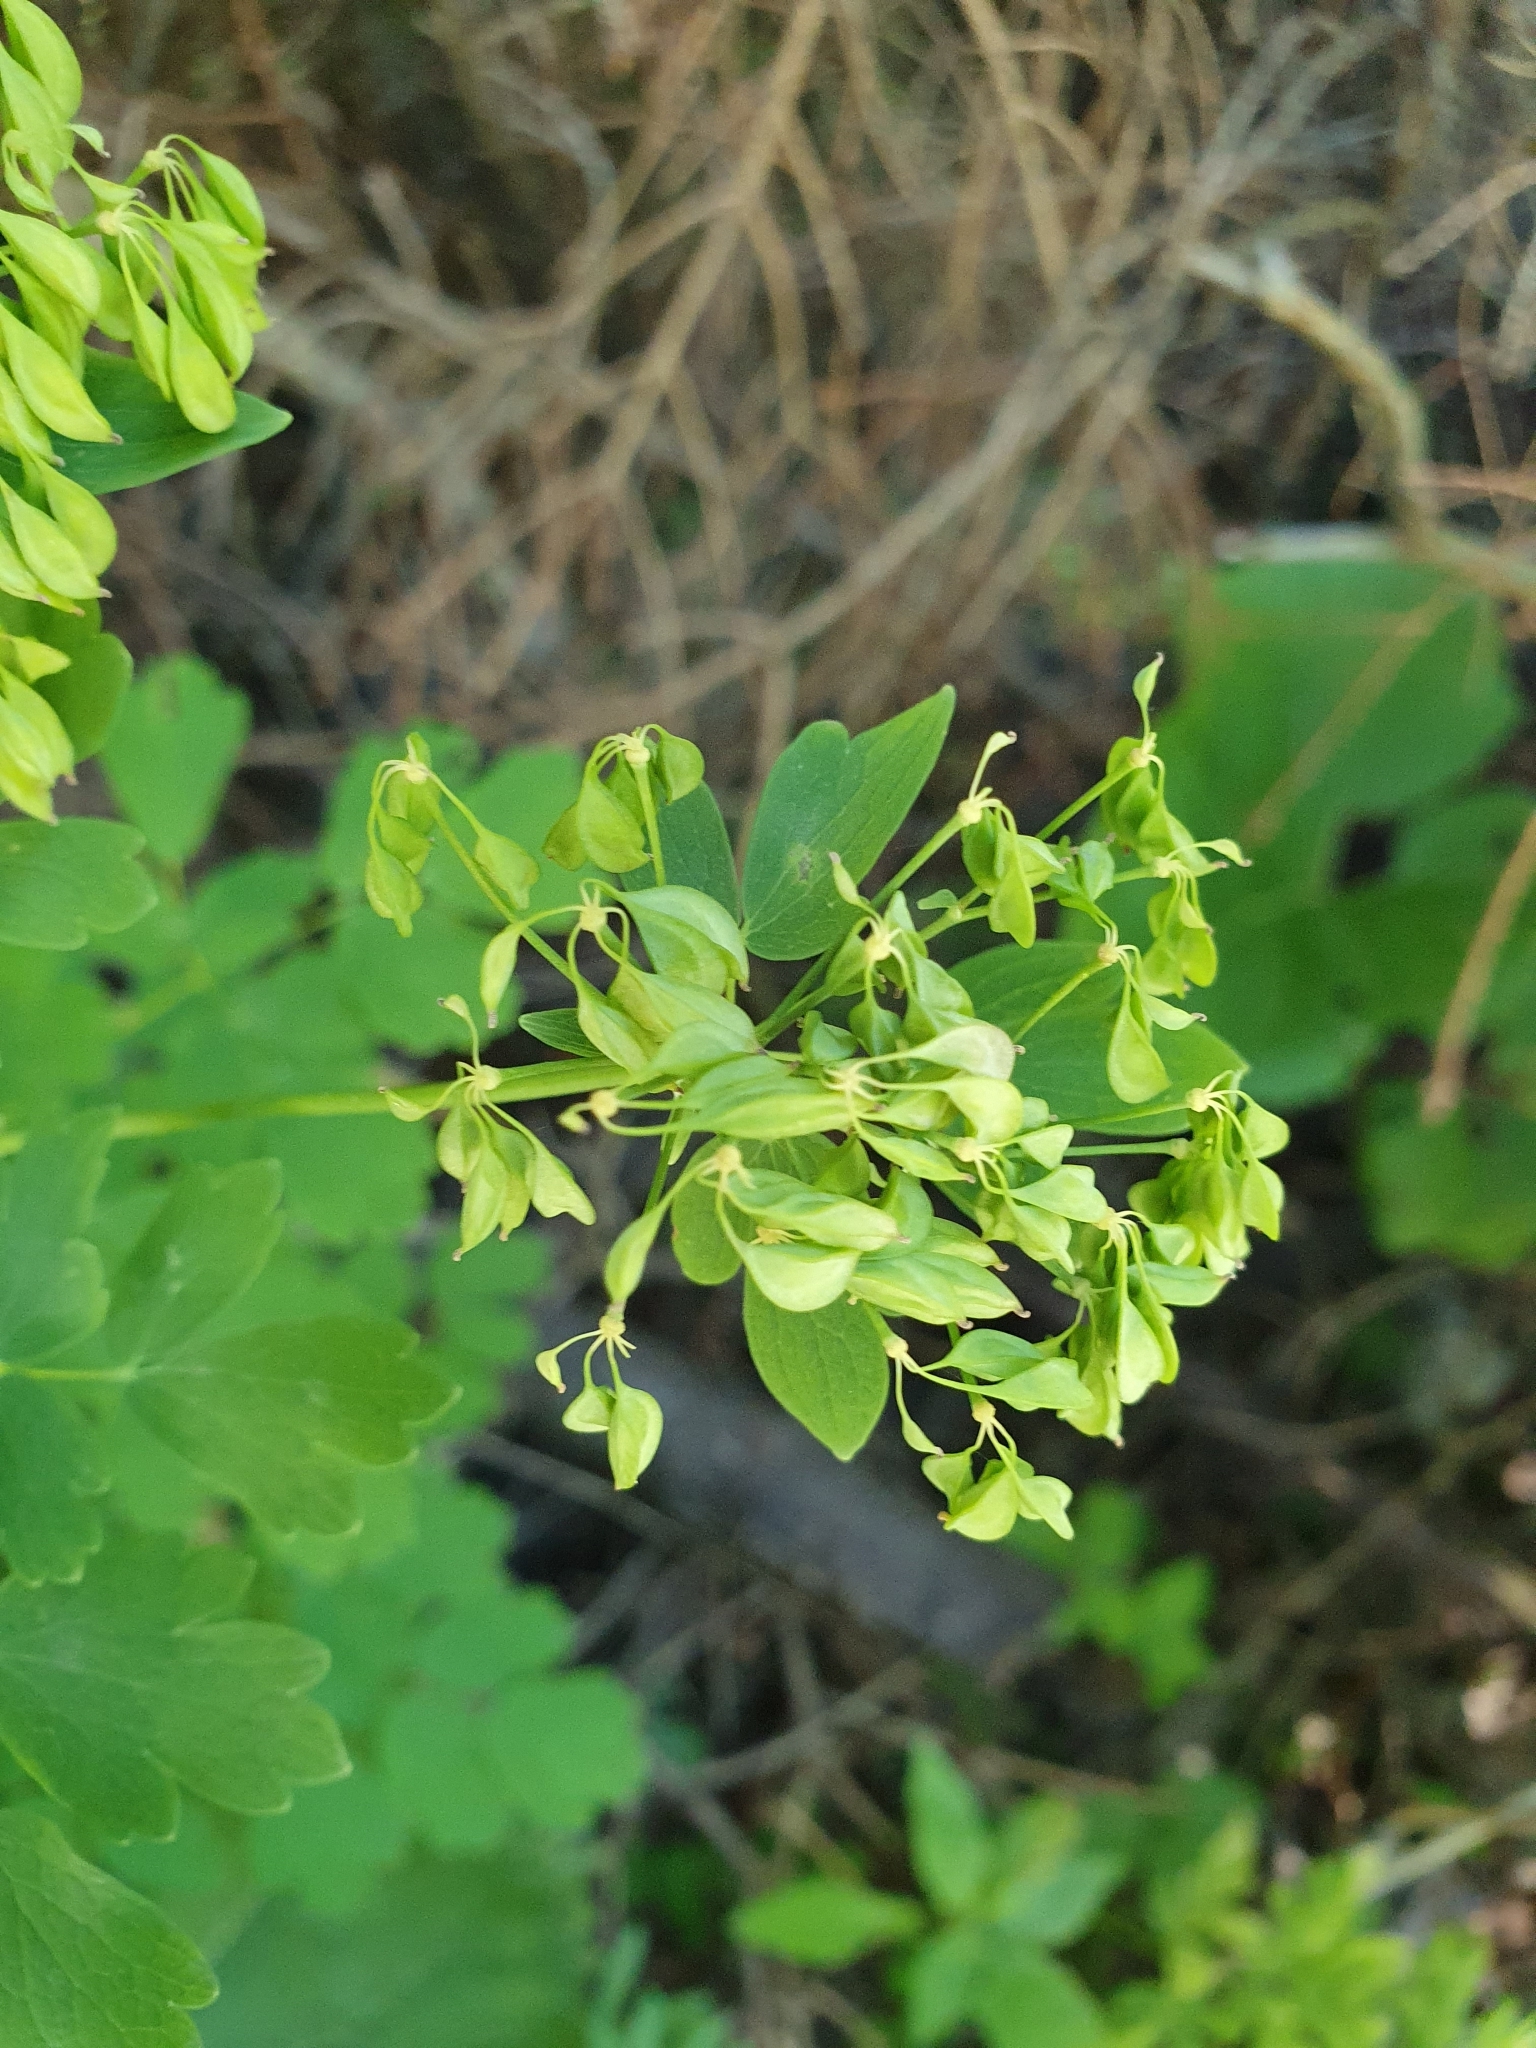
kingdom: Plantae
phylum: Tracheophyta
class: Magnoliopsida
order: Ranunculales
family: Ranunculaceae
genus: Thalictrum
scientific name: Thalictrum aquilegiifolium
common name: French meadow-rue
